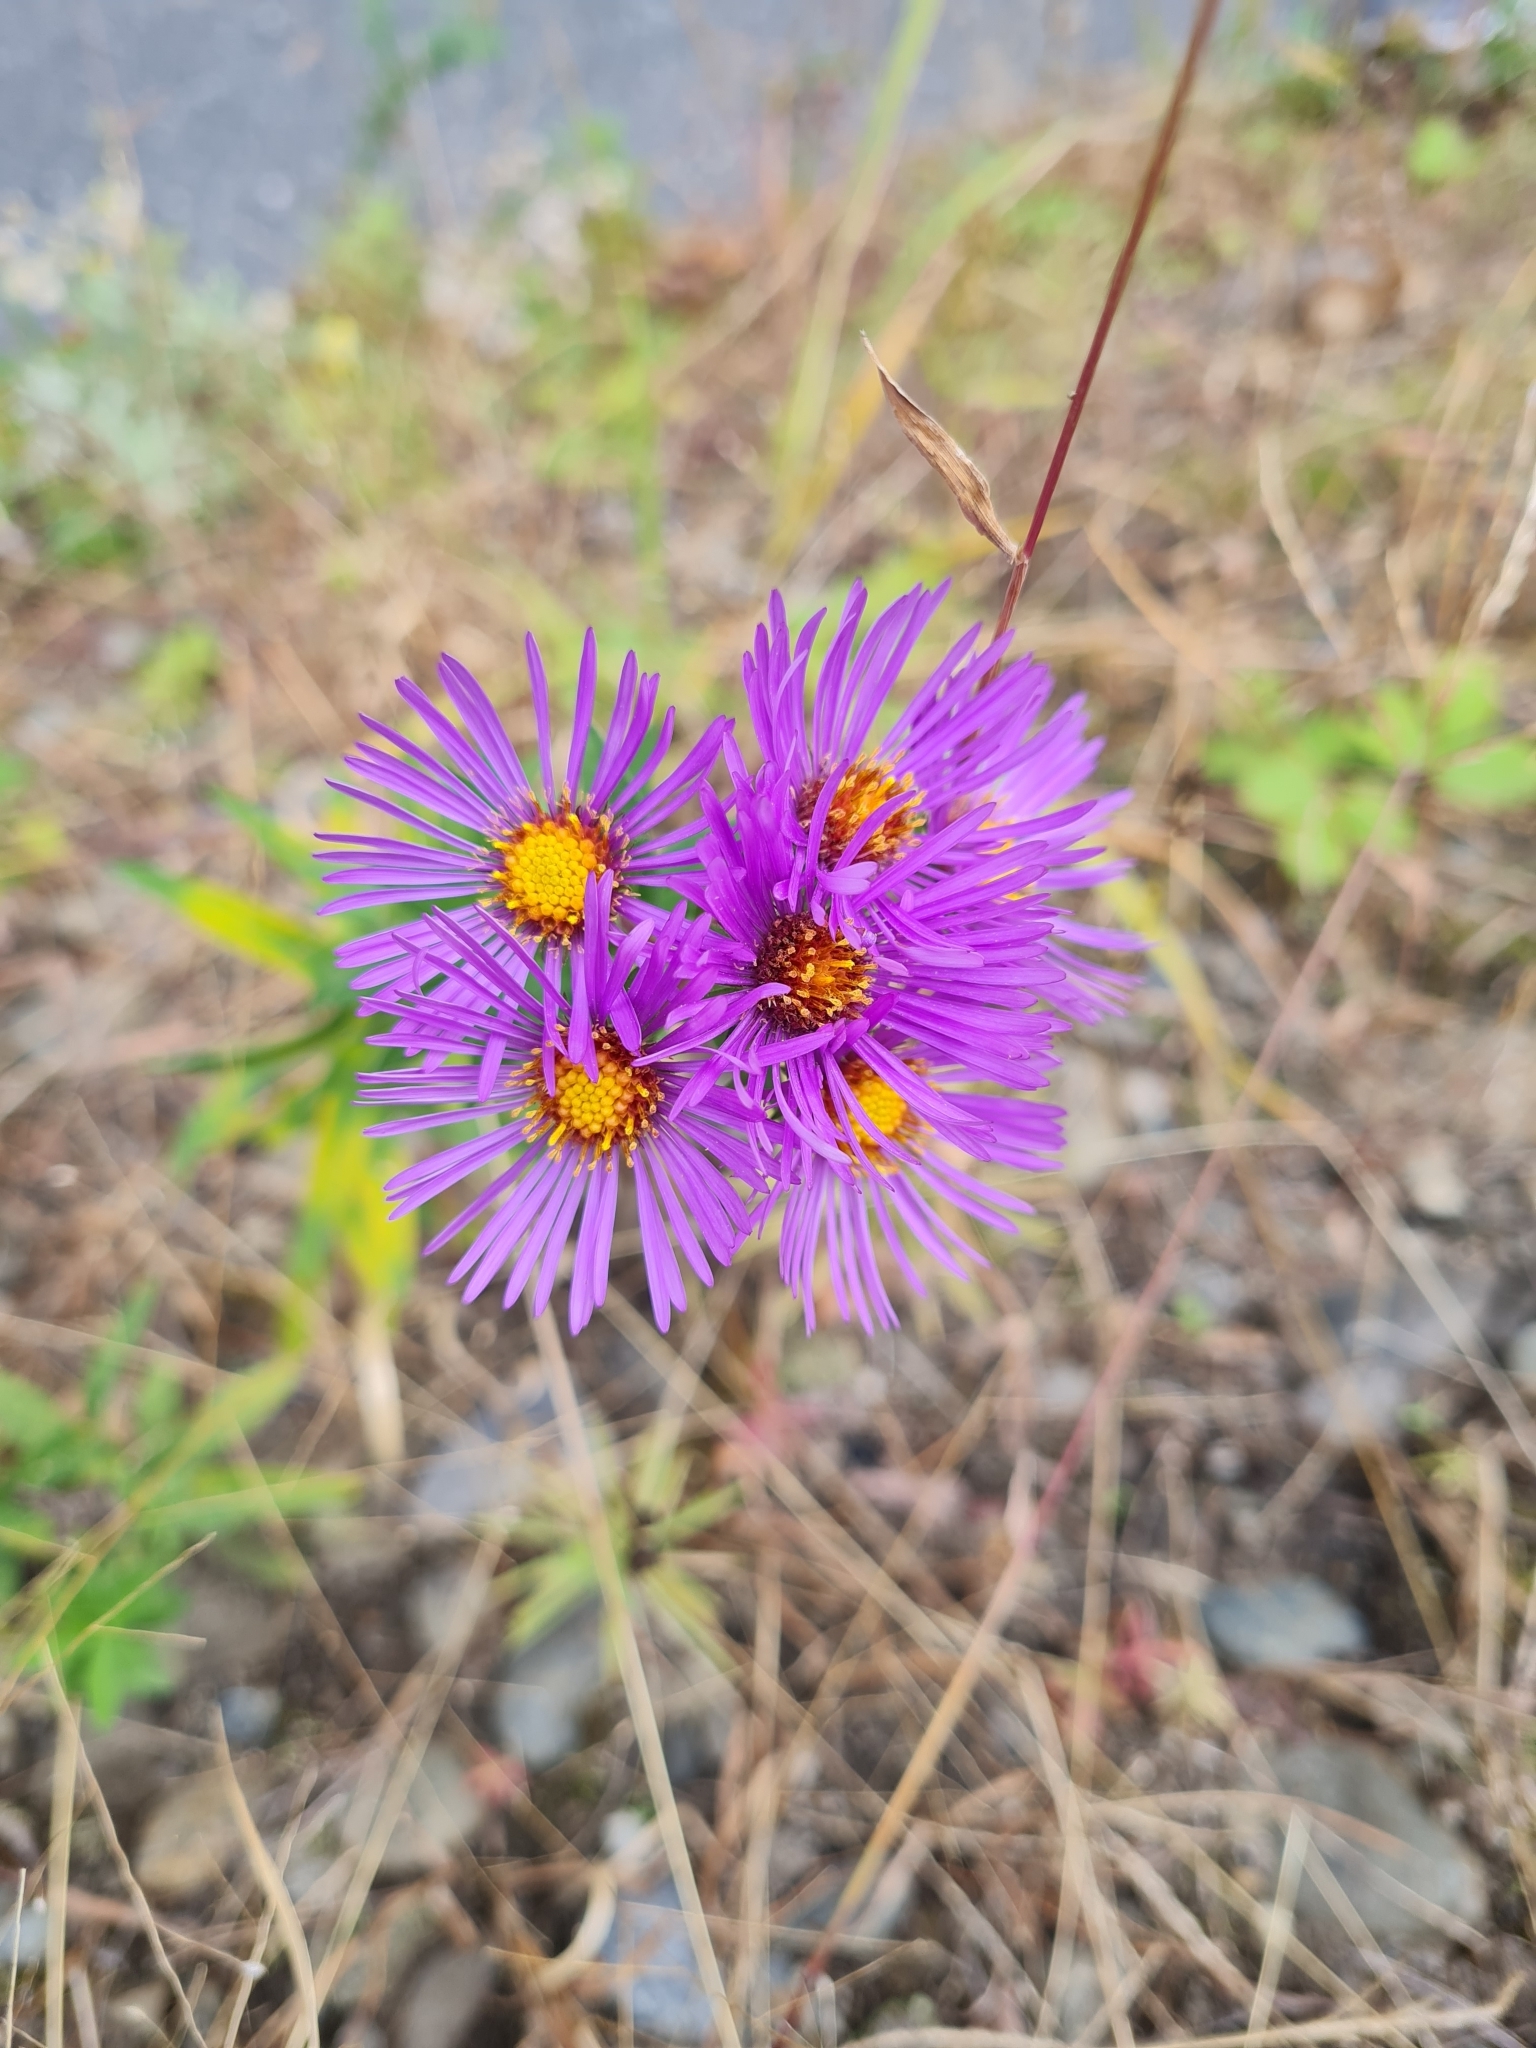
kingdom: Plantae
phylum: Tracheophyta
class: Magnoliopsida
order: Asterales
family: Asteraceae
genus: Symphyotrichum
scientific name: Symphyotrichum novae-angliae
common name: Michaelmas daisy
